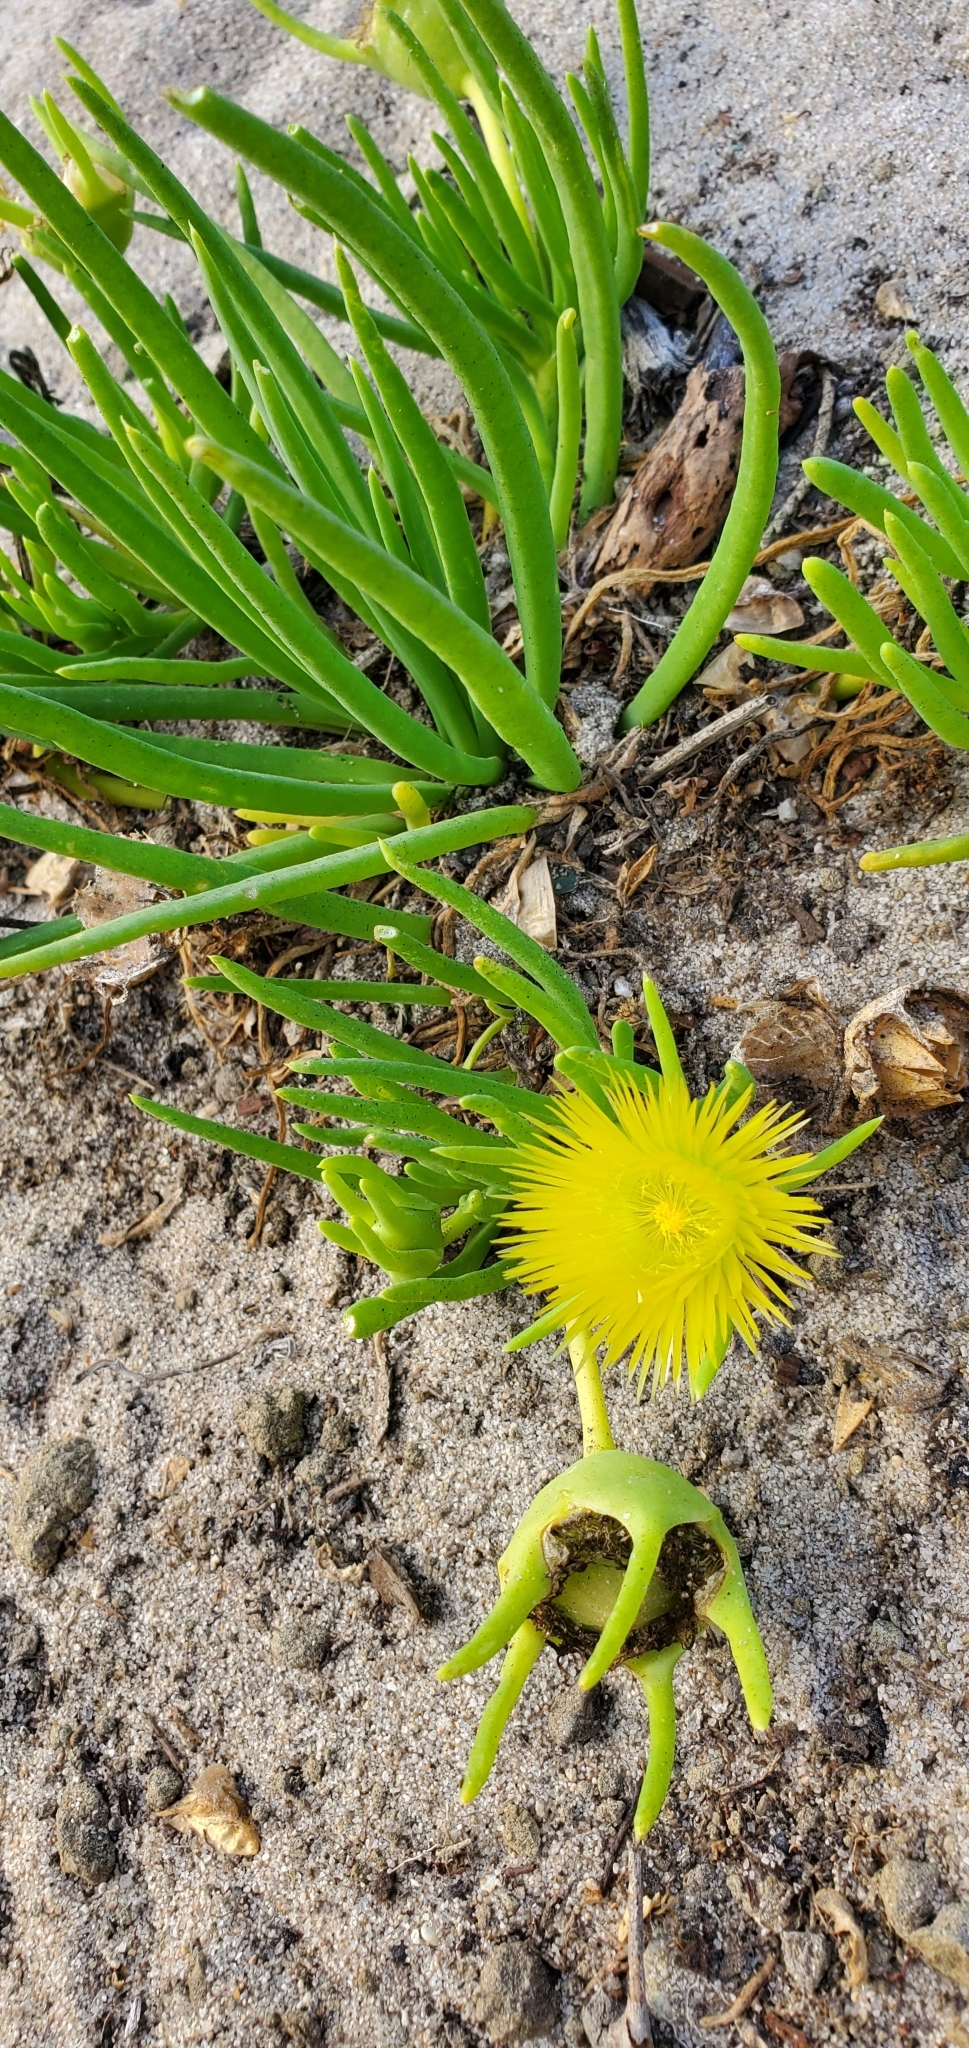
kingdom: Plantae
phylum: Tracheophyta
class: Magnoliopsida
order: Caryophyllales
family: Aizoaceae
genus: Conicosia
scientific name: Conicosia pugioniformis
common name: Narrow-leaved iceplant
